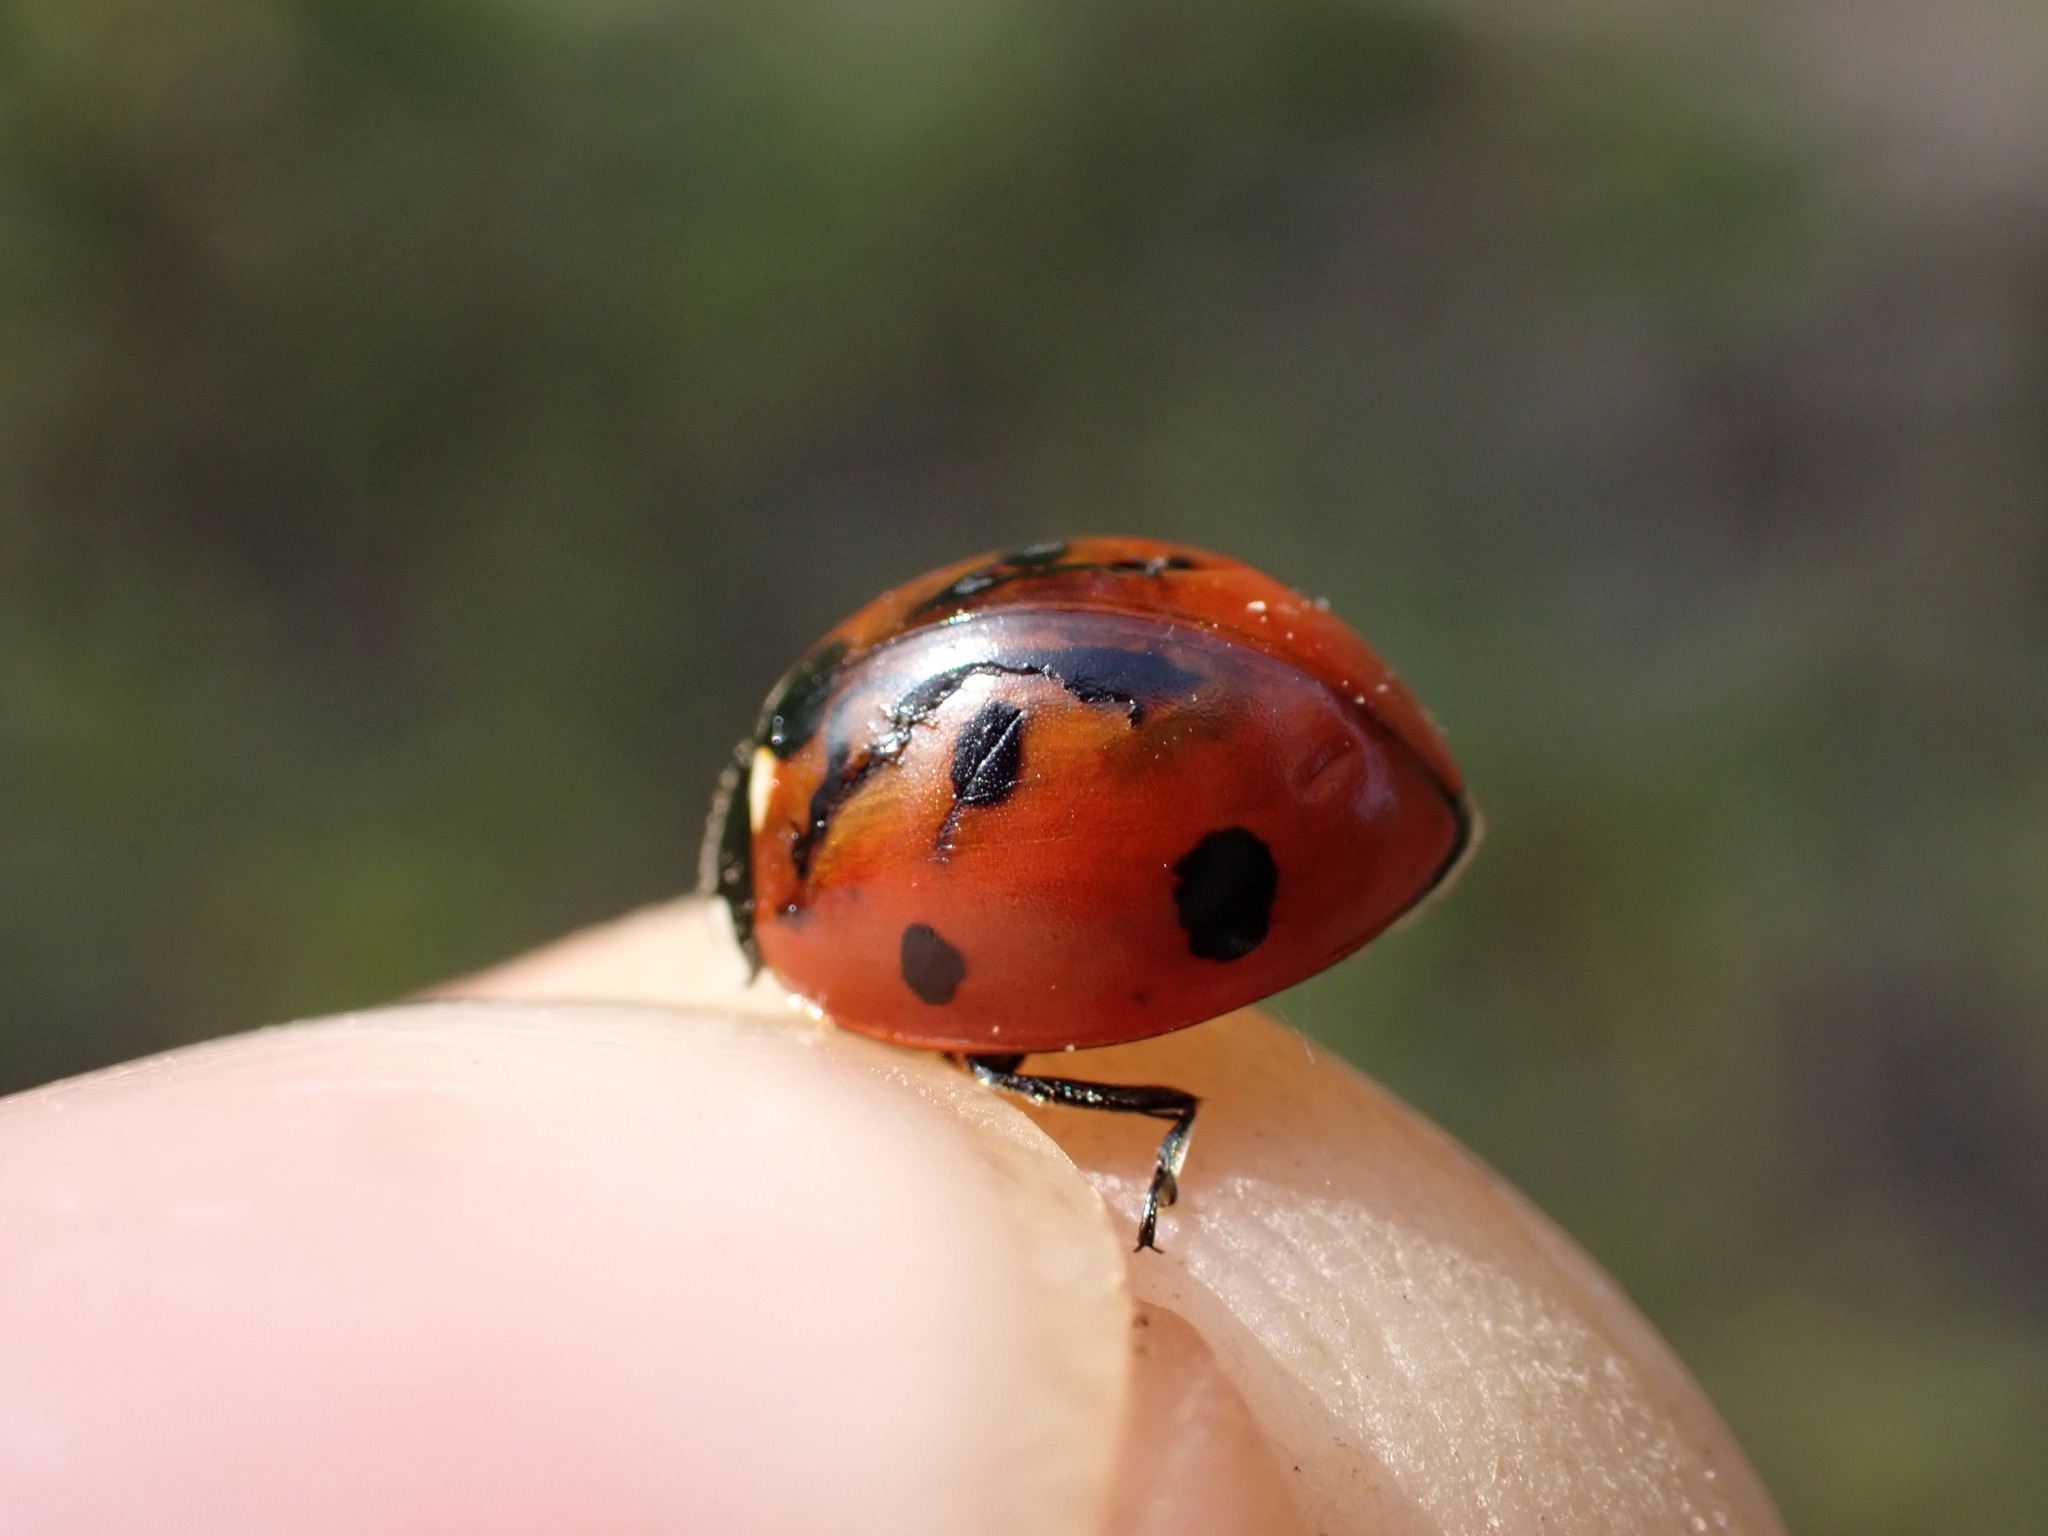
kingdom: Animalia
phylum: Arthropoda
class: Insecta
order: Coleoptera
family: Coccinellidae
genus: Coccinella
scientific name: Coccinella septempunctata
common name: Sevenspotted lady beetle
